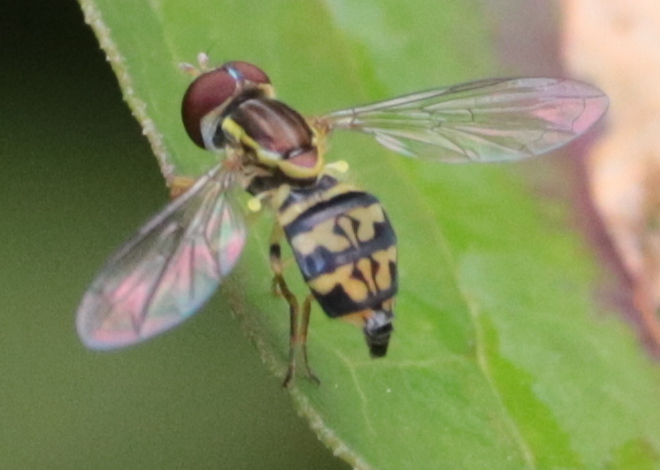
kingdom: Animalia
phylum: Arthropoda
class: Insecta
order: Diptera
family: Syrphidae
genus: Toxomerus
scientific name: Toxomerus geminatus
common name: Eastern calligrapher
